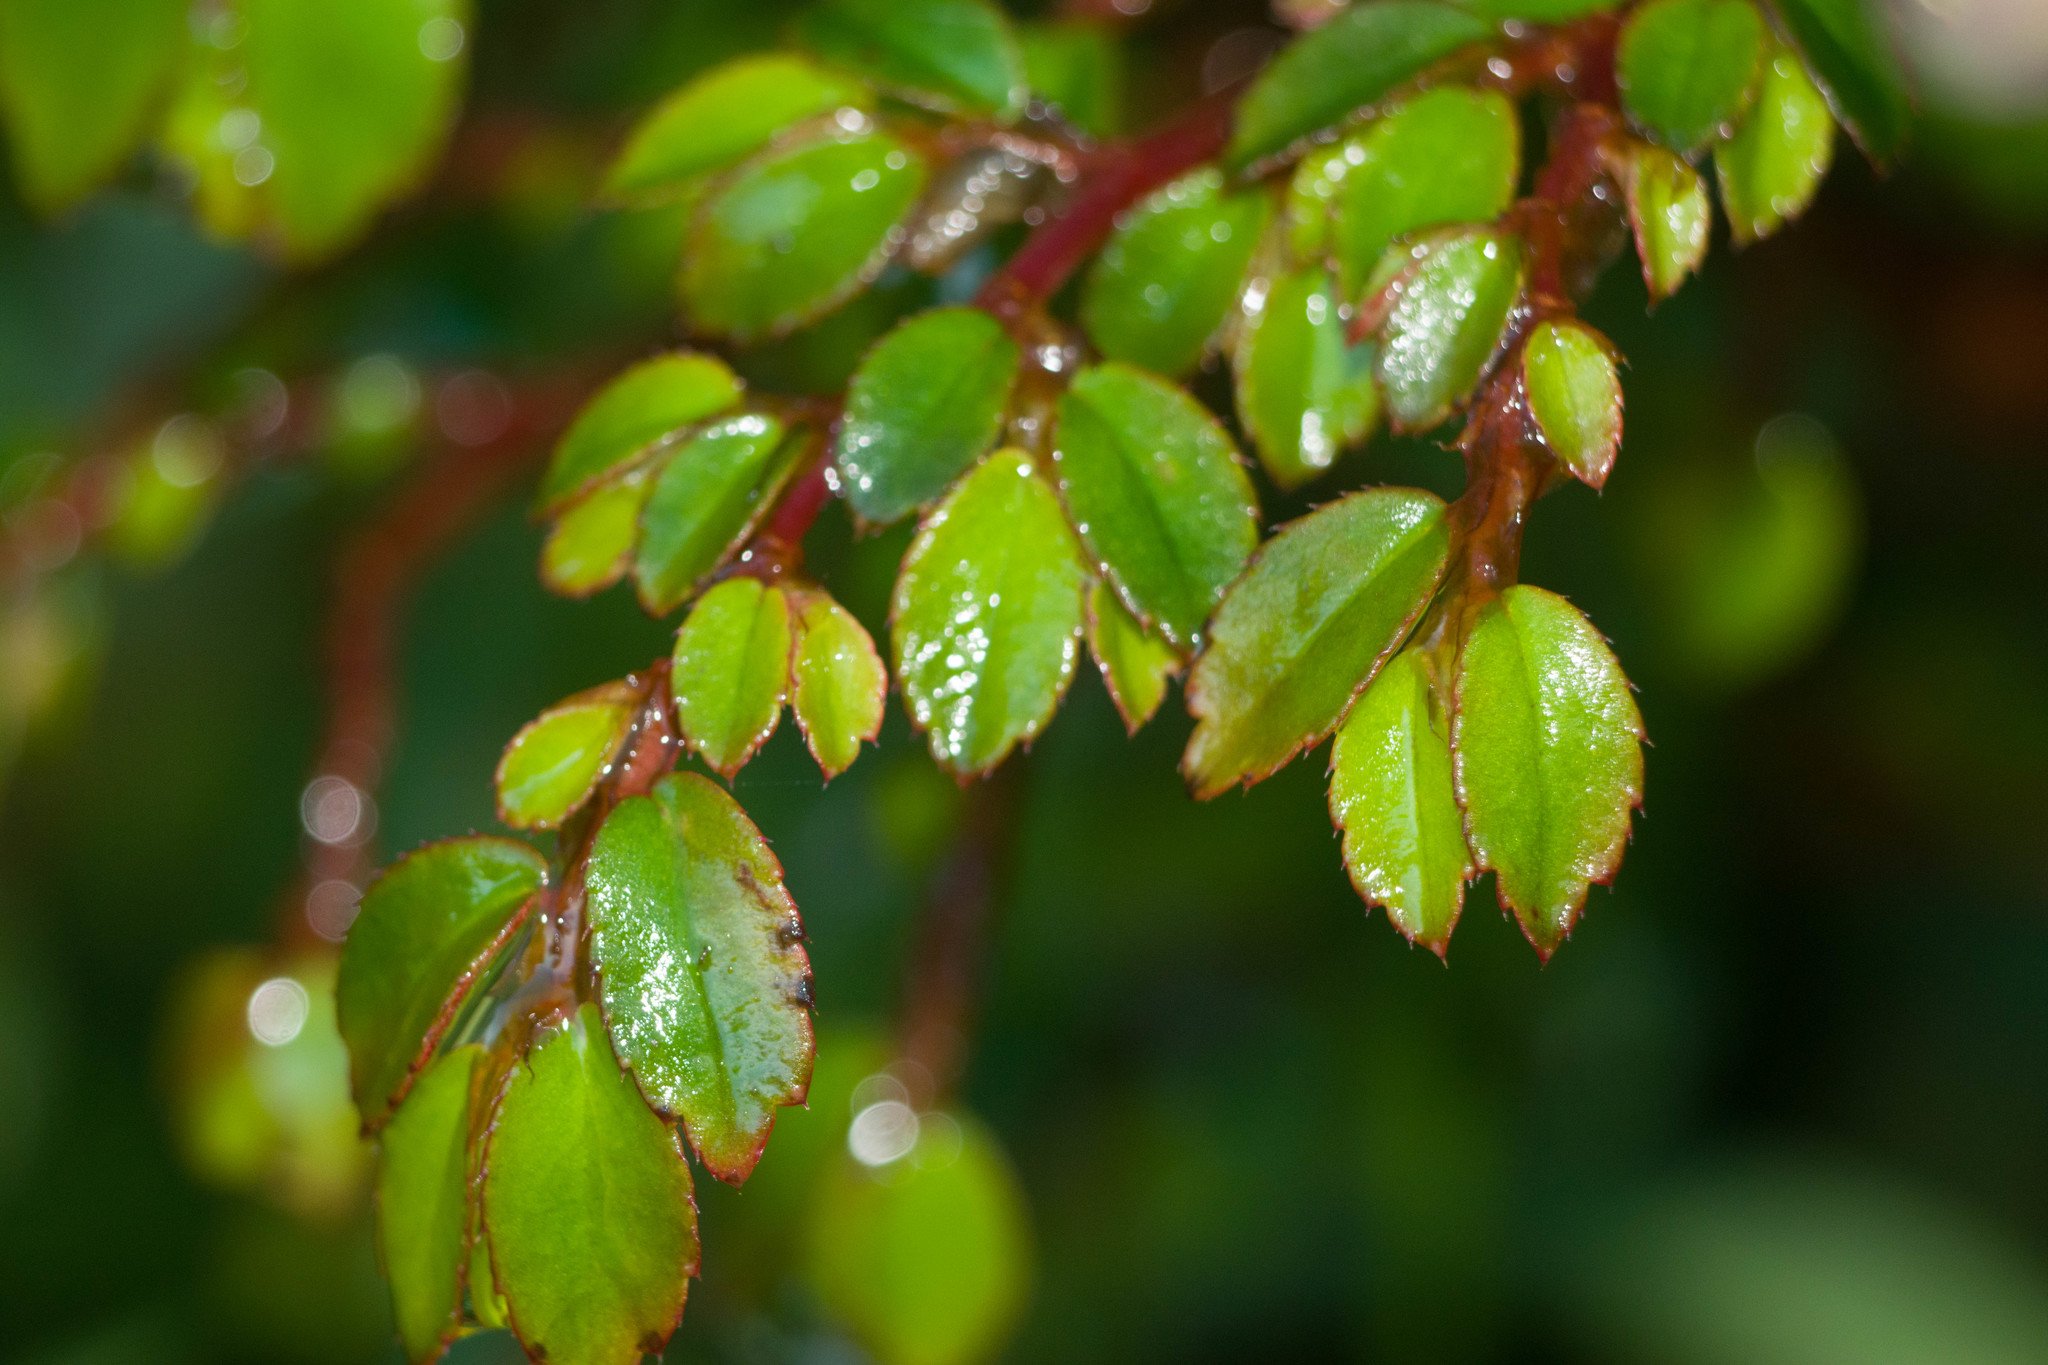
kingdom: Plantae
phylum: Tracheophyta
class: Magnoliopsida
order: Cucurbitales
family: Begoniaceae
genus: Begonia
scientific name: Begonia foliosa
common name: Fern begonia
